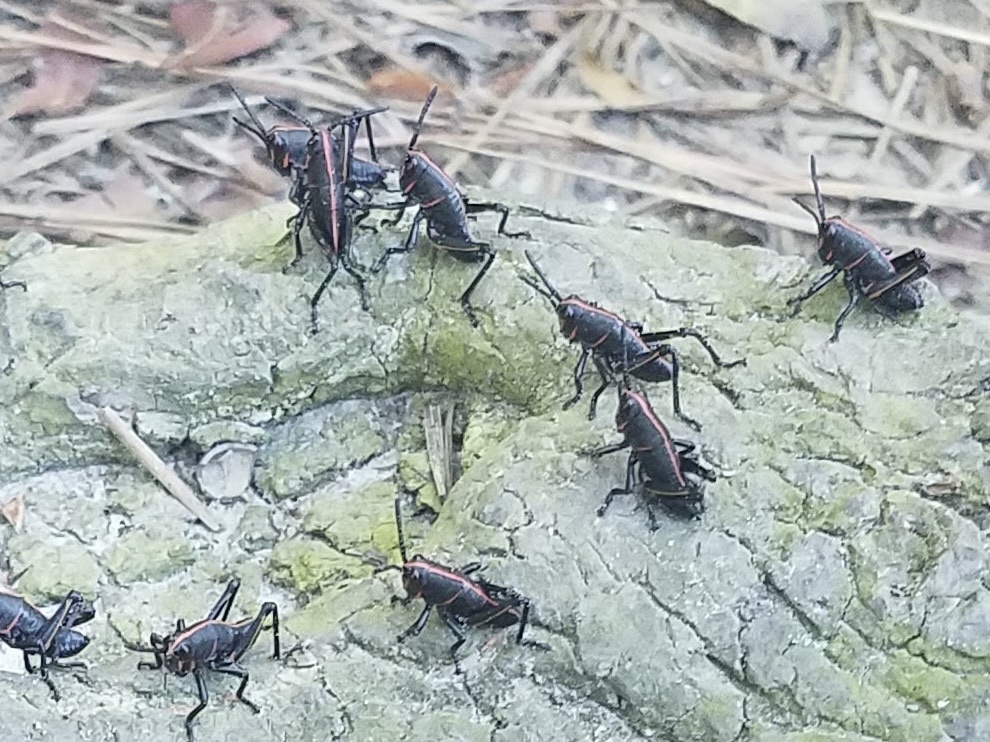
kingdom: Animalia
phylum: Arthropoda
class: Insecta
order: Orthoptera
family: Romaleidae
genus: Romalea
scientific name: Romalea microptera
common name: Eastern lubber grasshopper
